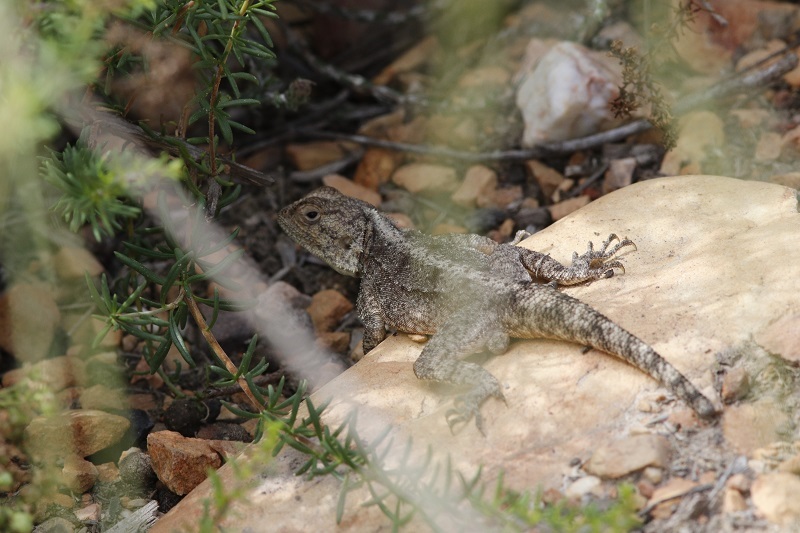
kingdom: Animalia
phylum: Chordata
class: Squamata
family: Agamidae
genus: Agama
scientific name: Agama atra
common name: Southern african rock agama
